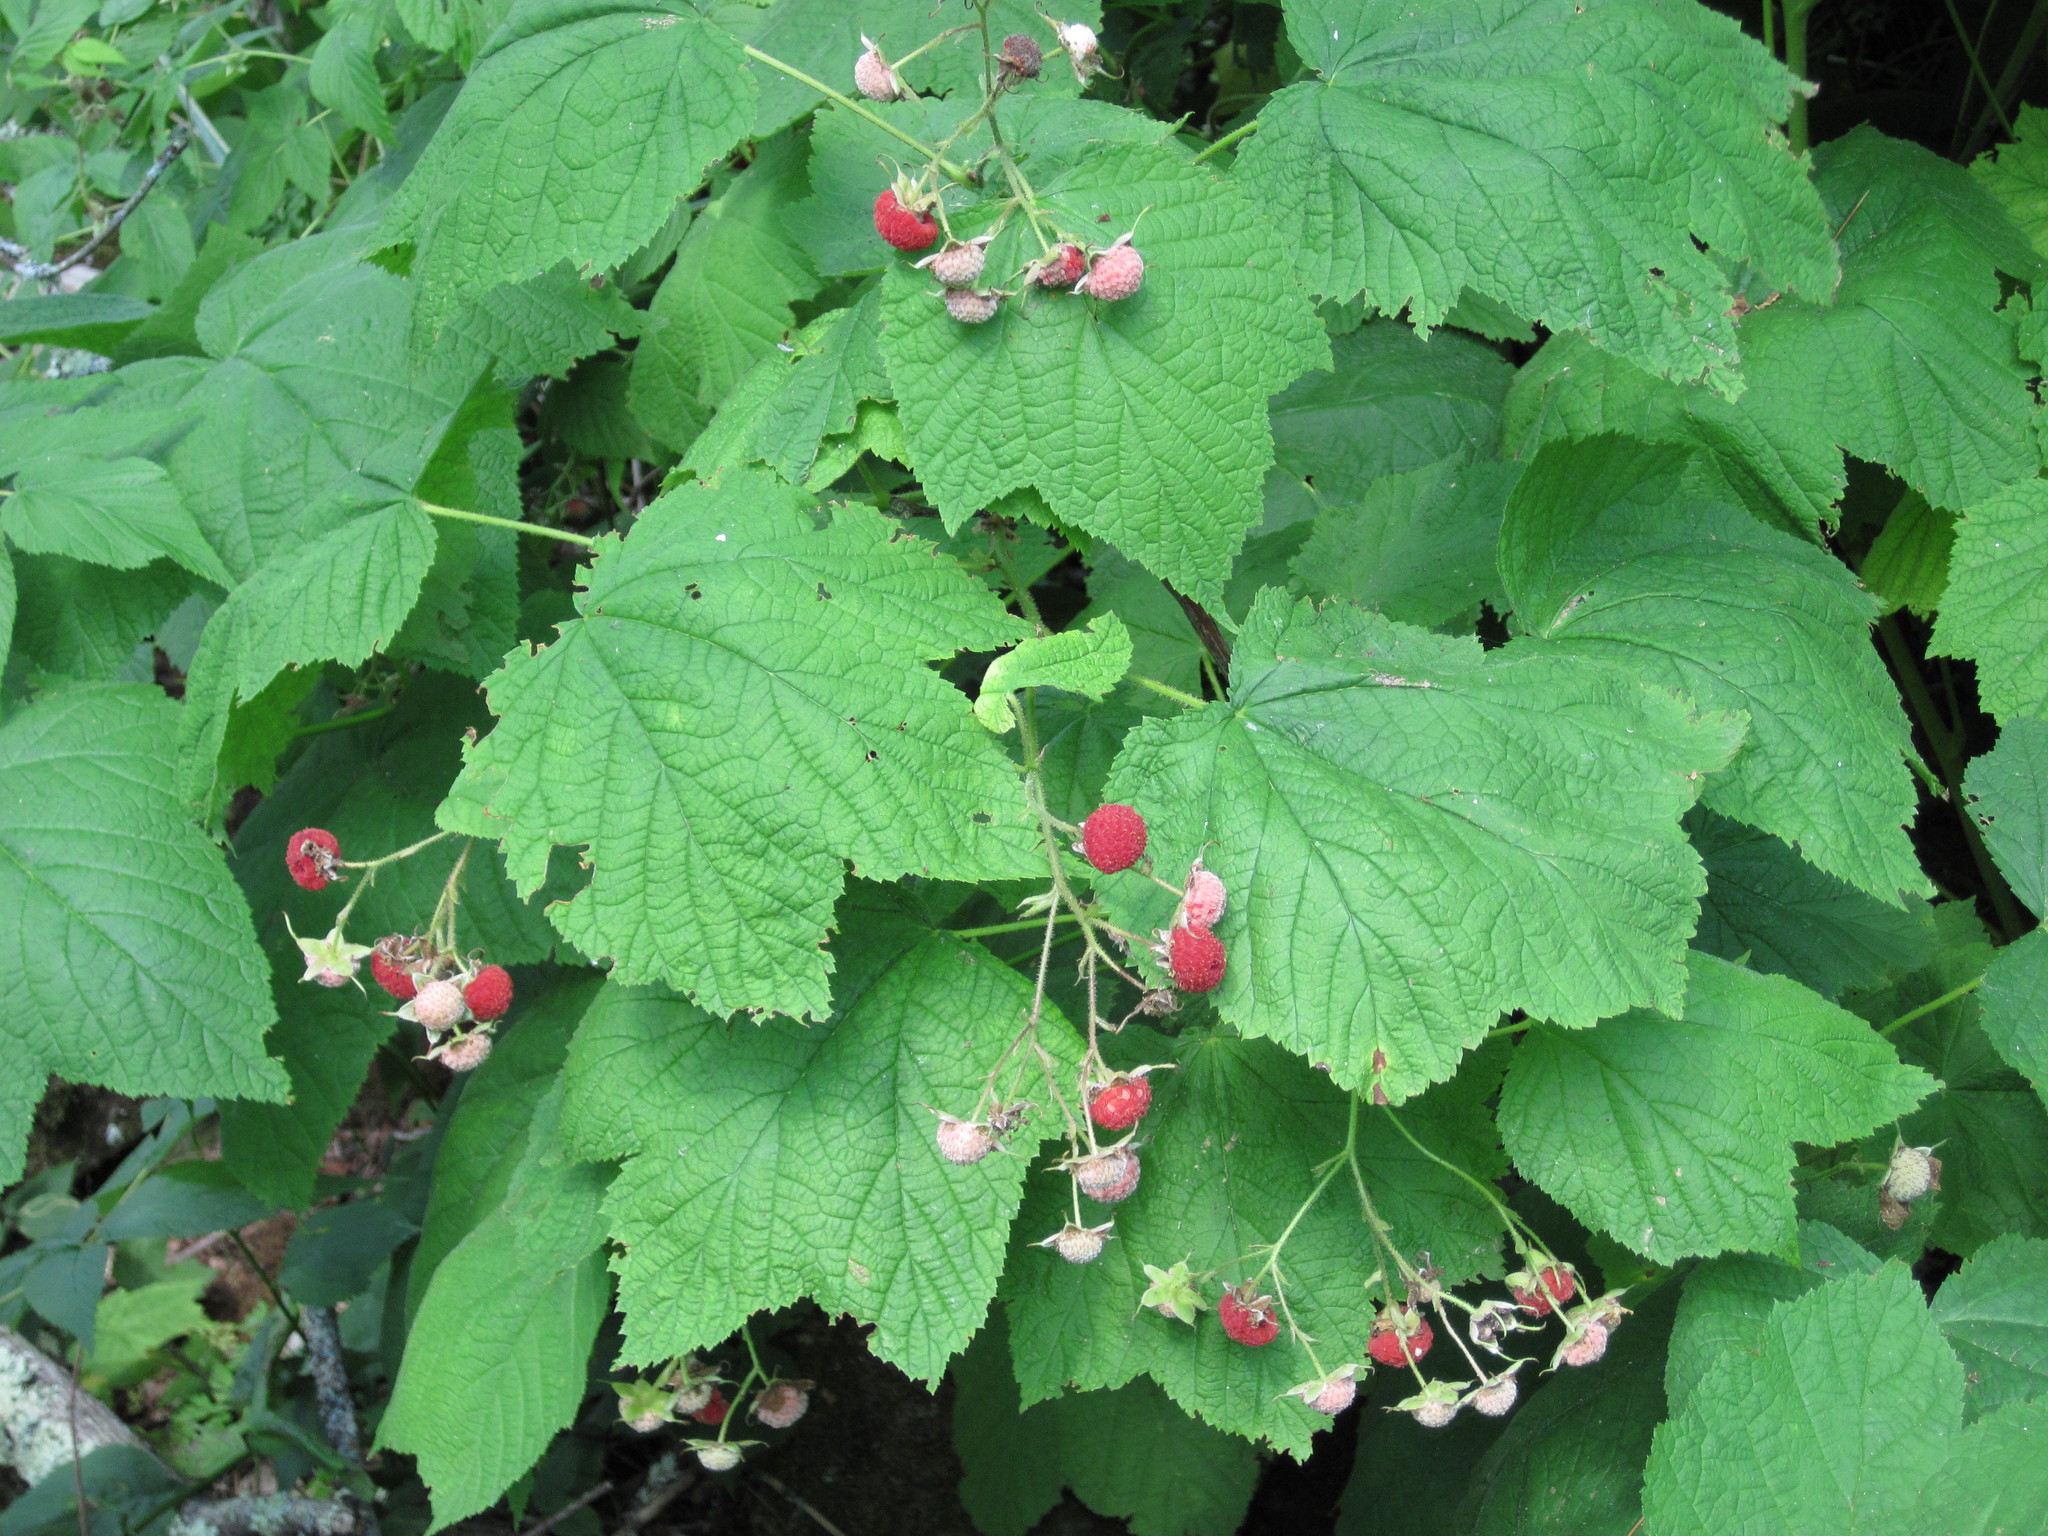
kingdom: Plantae
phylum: Tracheophyta
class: Magnoliopsida
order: Rosales
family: Rosaceae
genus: Rubus
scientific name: Rubus parviflorus
